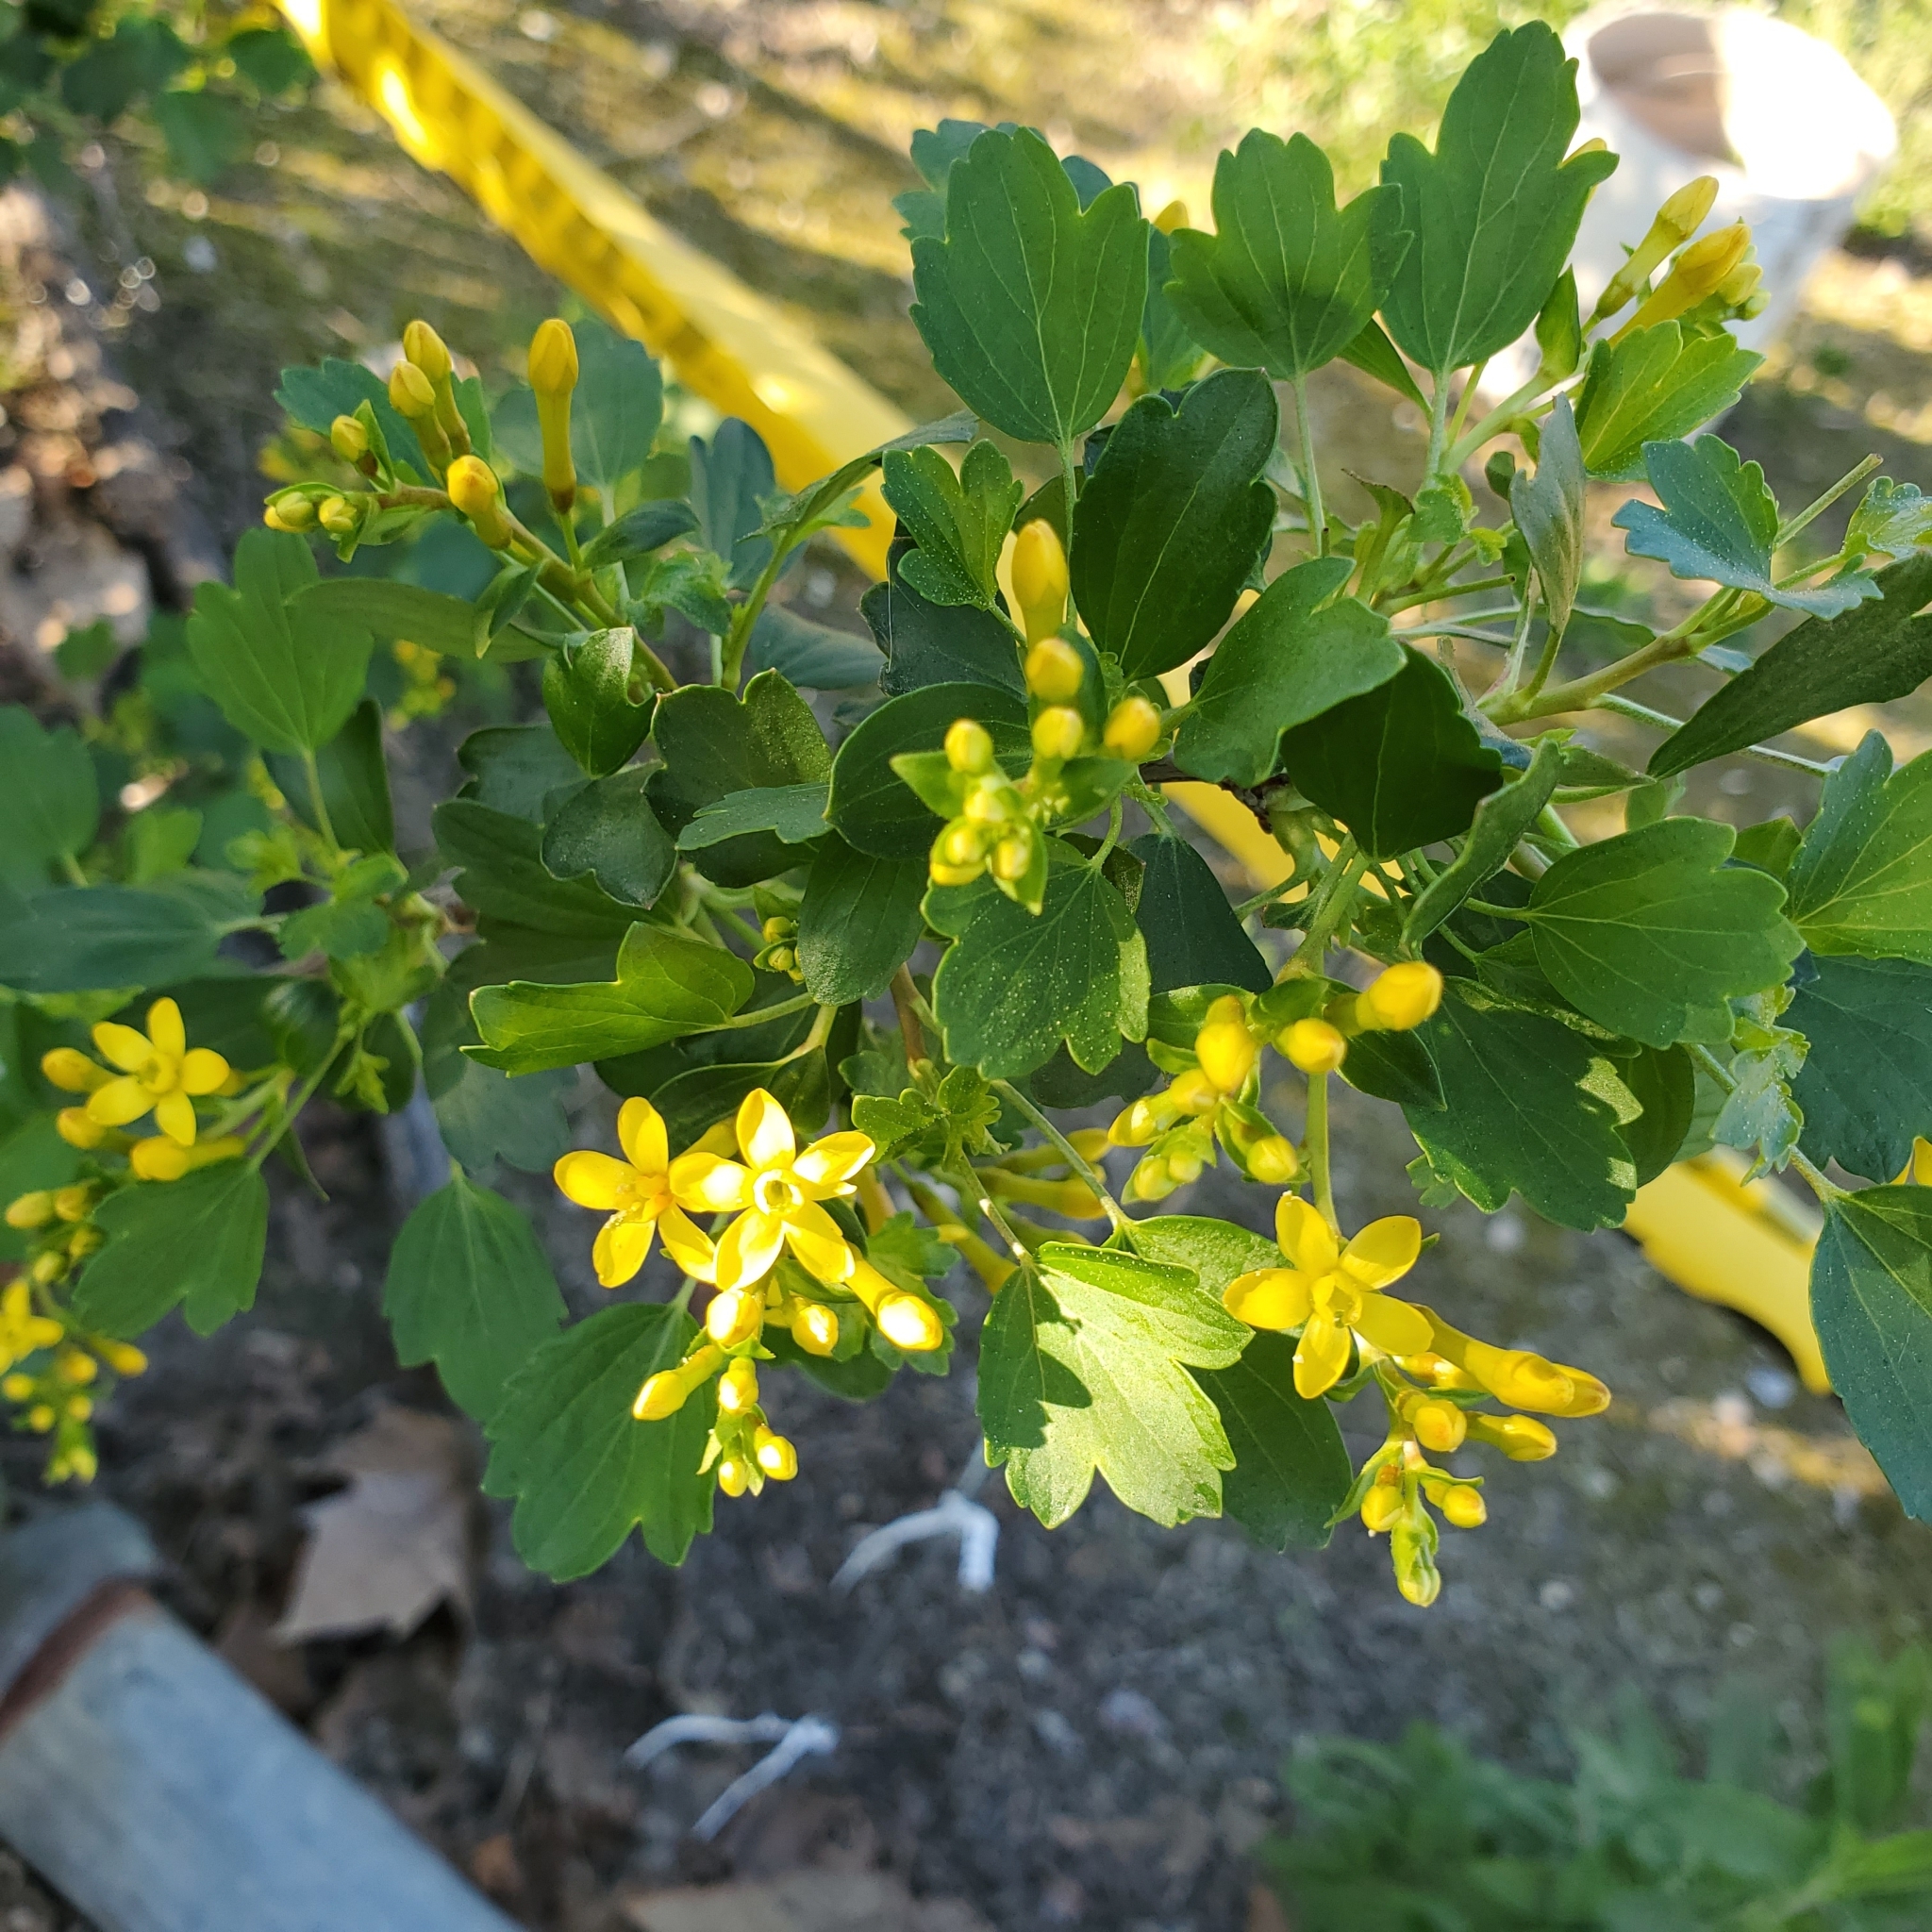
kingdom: Plantae
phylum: Tracheophyta
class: Magnoliopsida
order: Saxifragales
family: Grossulariaceae
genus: Ribes
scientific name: Ribes aureum
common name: Golden currant
